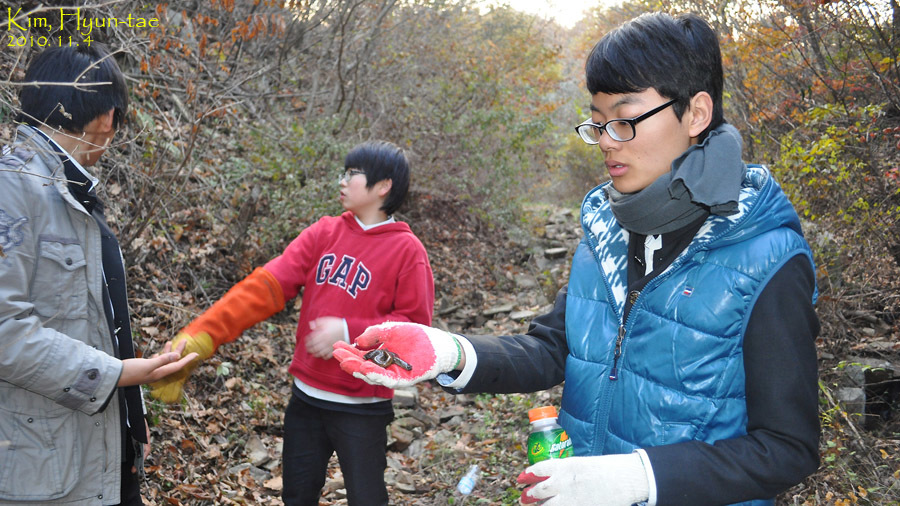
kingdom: Animalia
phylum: Chordata
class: Amphibia
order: Caudata
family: Hynobiidae
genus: Hynobius
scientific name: Hynobius leechii
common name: Gensan salamander
